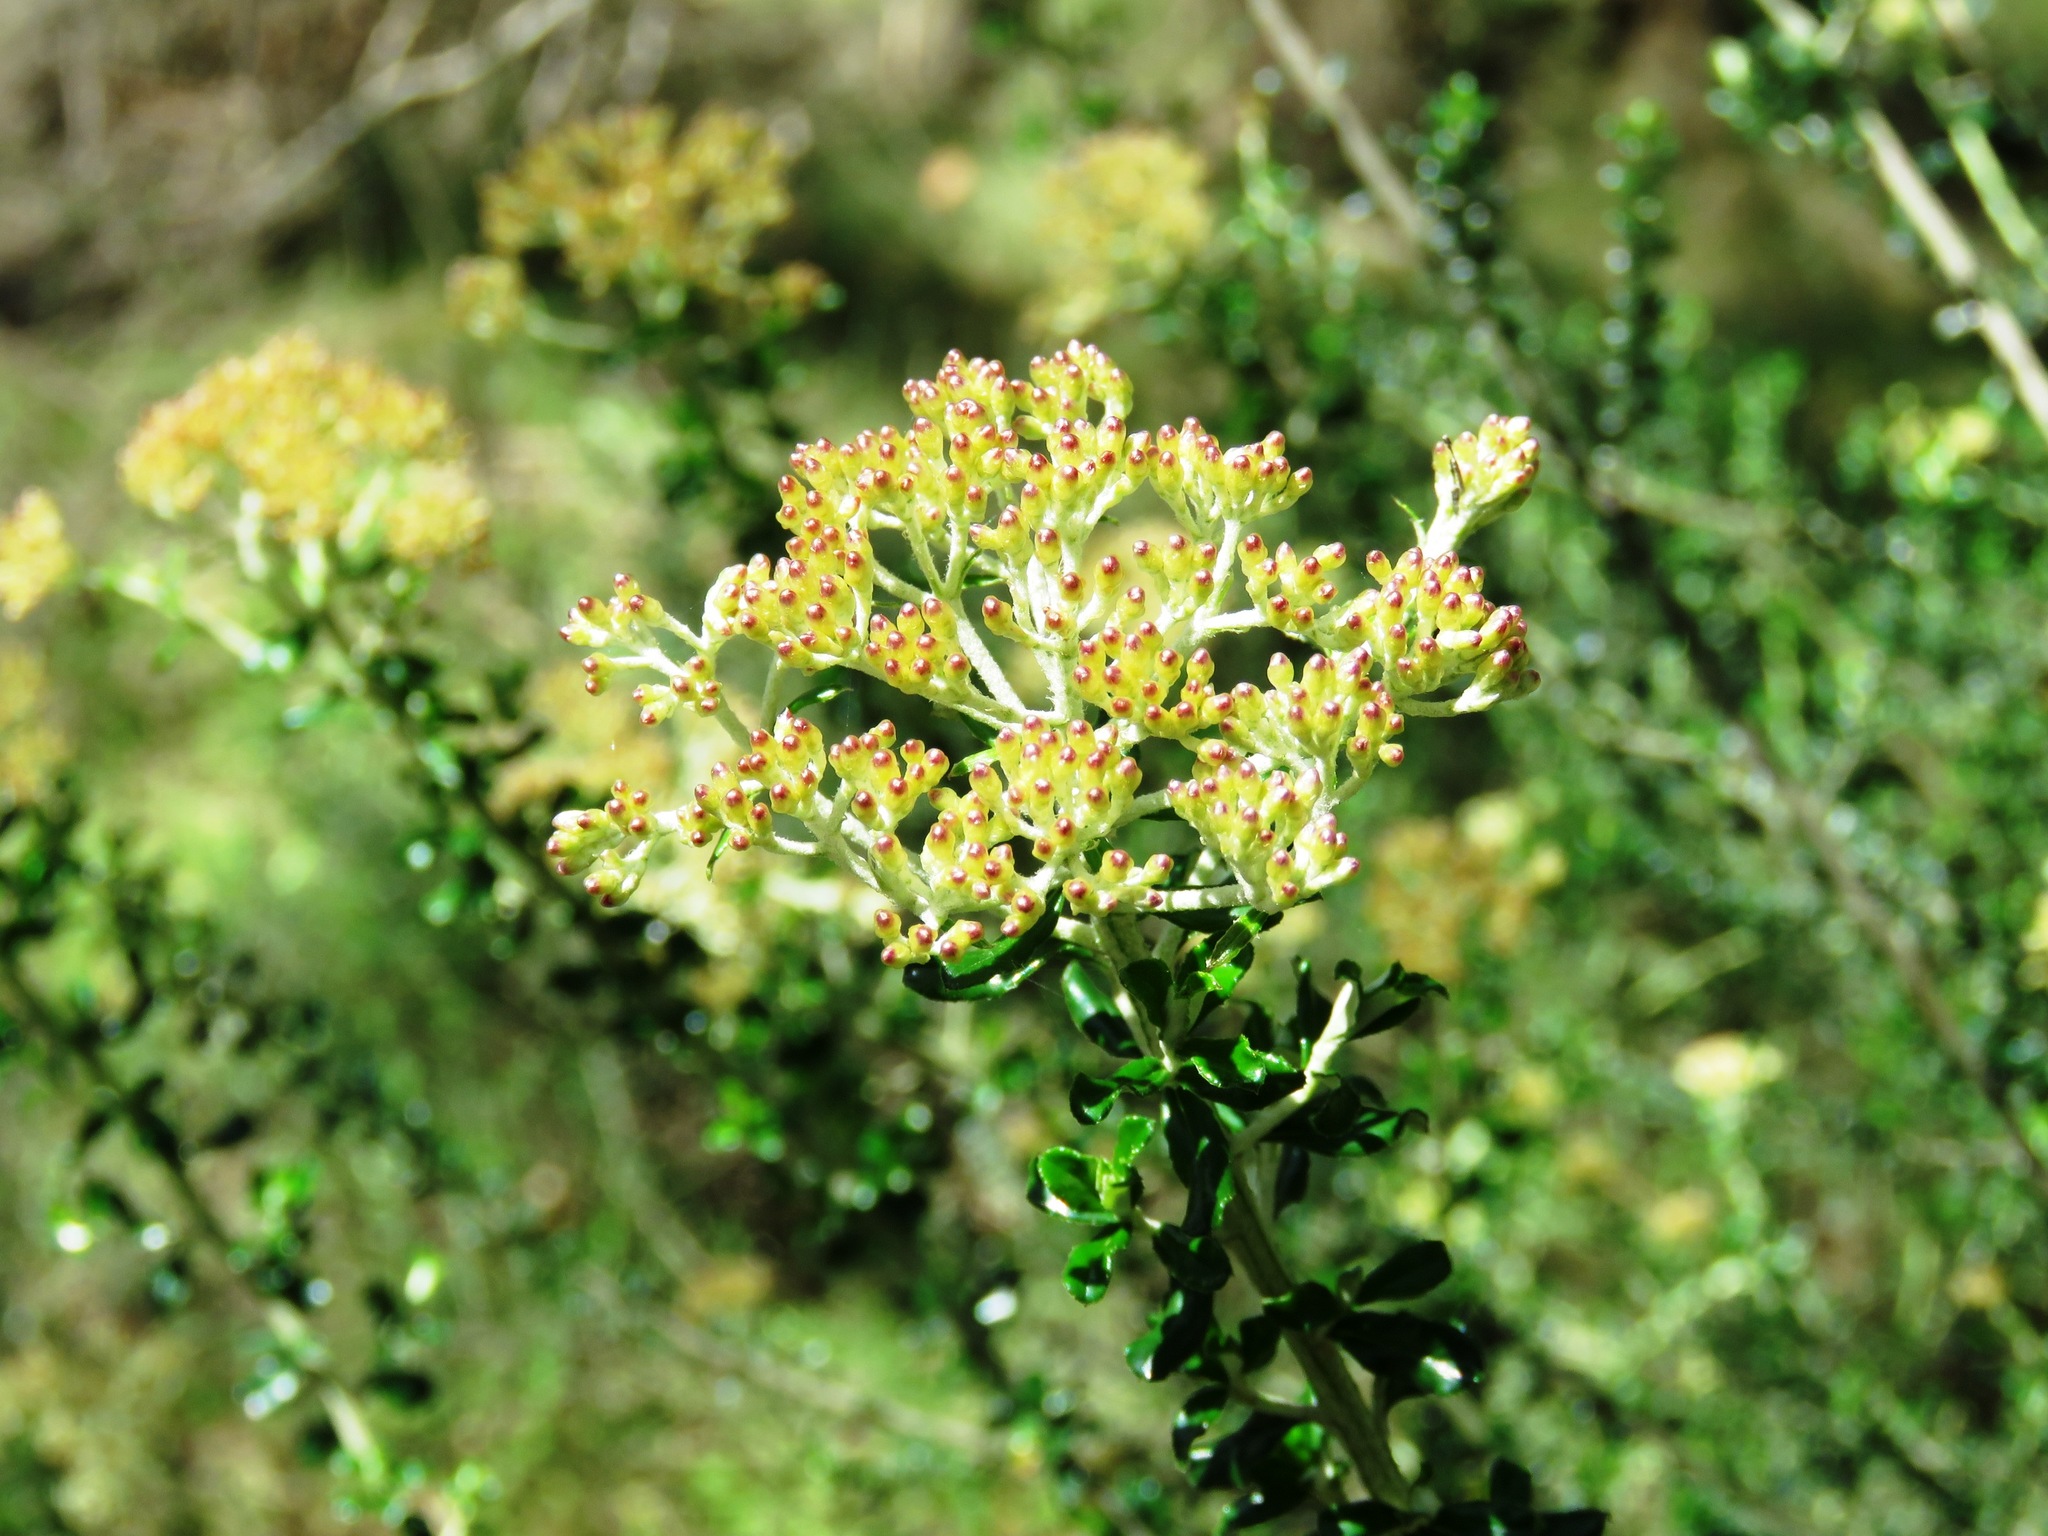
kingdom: Plantae
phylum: Tracheophyta
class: Magnoliopsida
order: Asterales
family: Asteraceae
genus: Ozothamnus
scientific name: Ozothamnus obcordatus
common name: Grey everlasting
